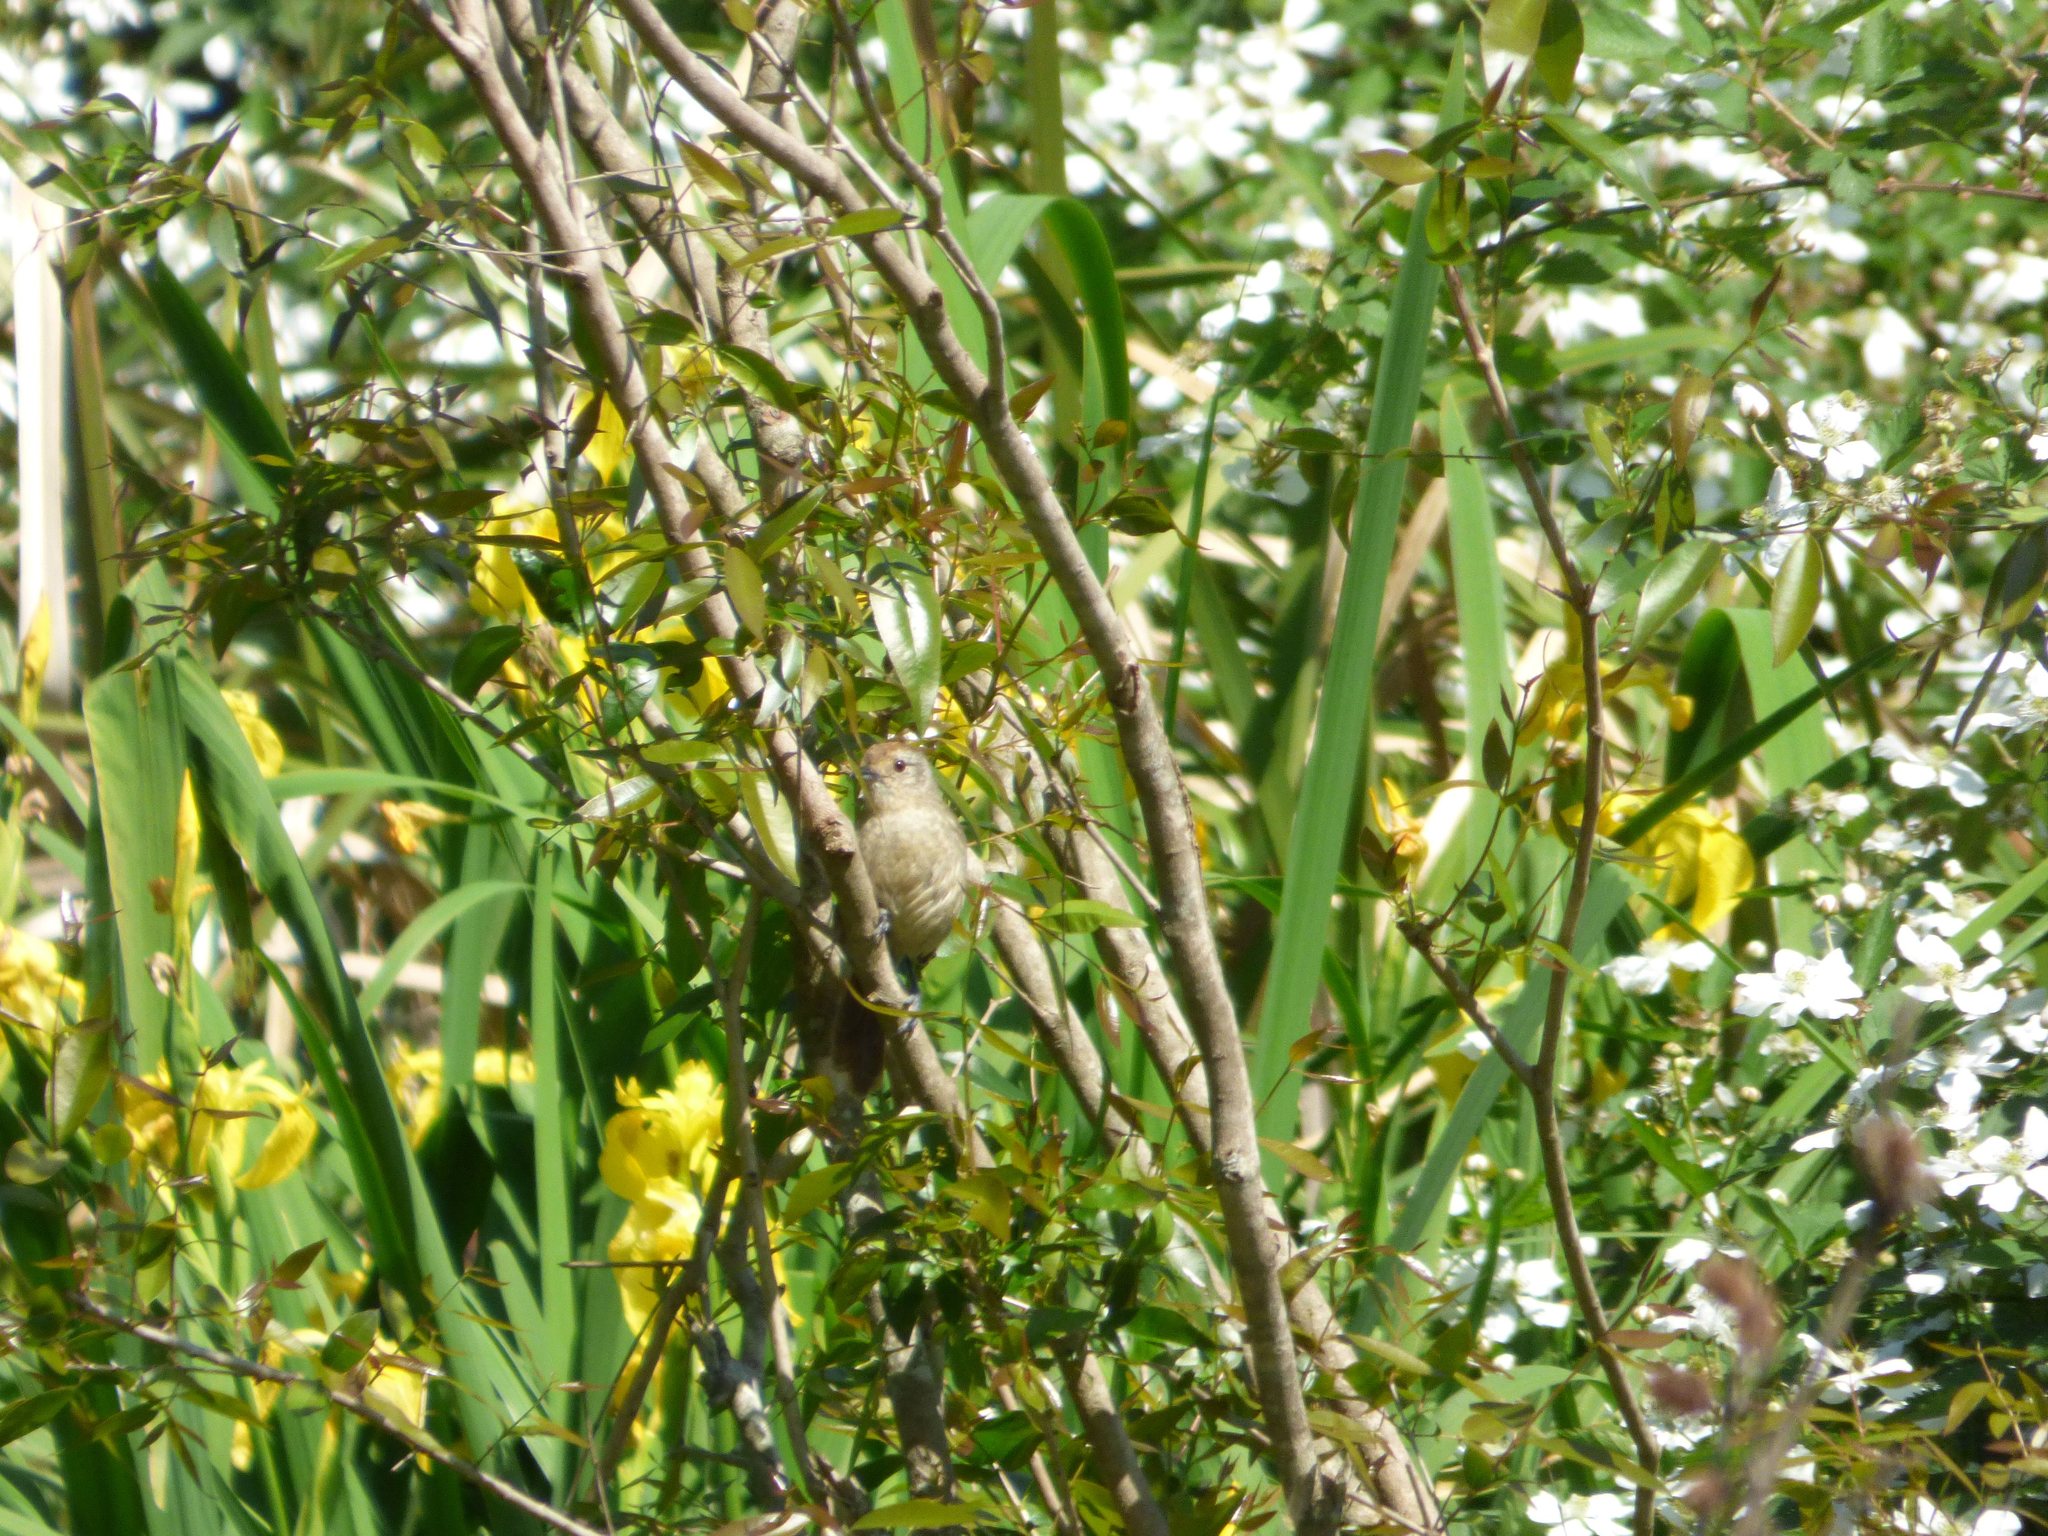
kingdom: Animalia
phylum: Chordata
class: Aves
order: Passeriformes
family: Thamnophilidae
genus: Thamnophilus
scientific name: Thamnophilus ruficapillus
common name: Rufous-capped antshrike
